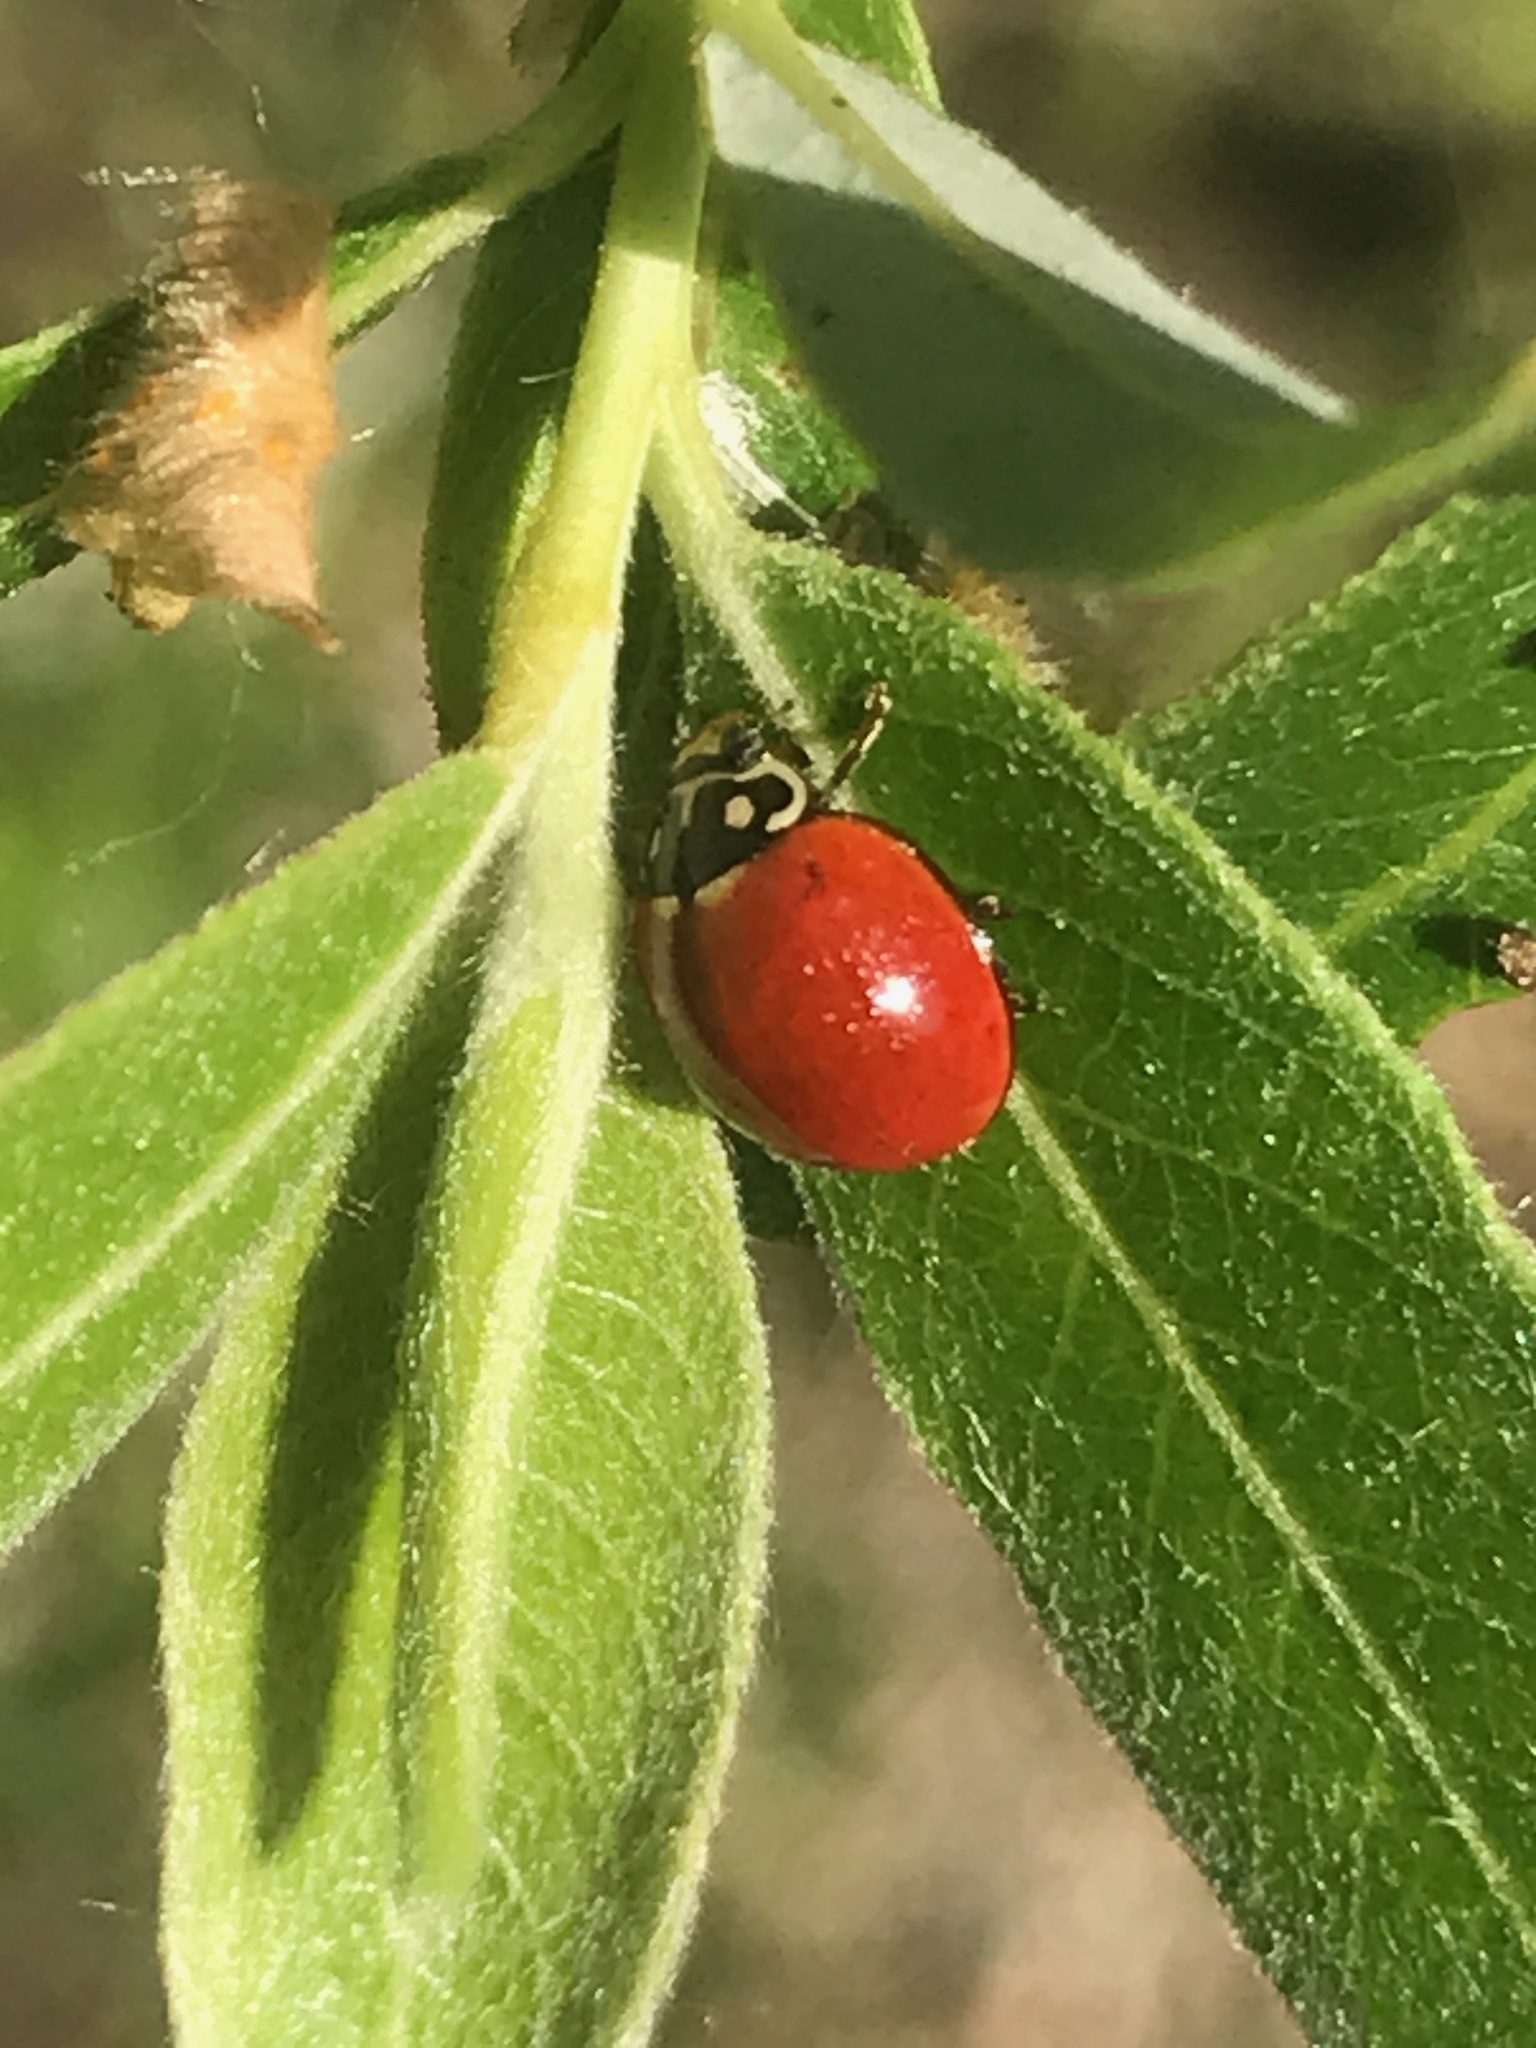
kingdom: Animalia
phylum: Arthropoda
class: Insecta
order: Coleoptera
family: Coccinellidae
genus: Cycloneda
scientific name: Cycloneda sanguinea
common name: Ladybird beetle
